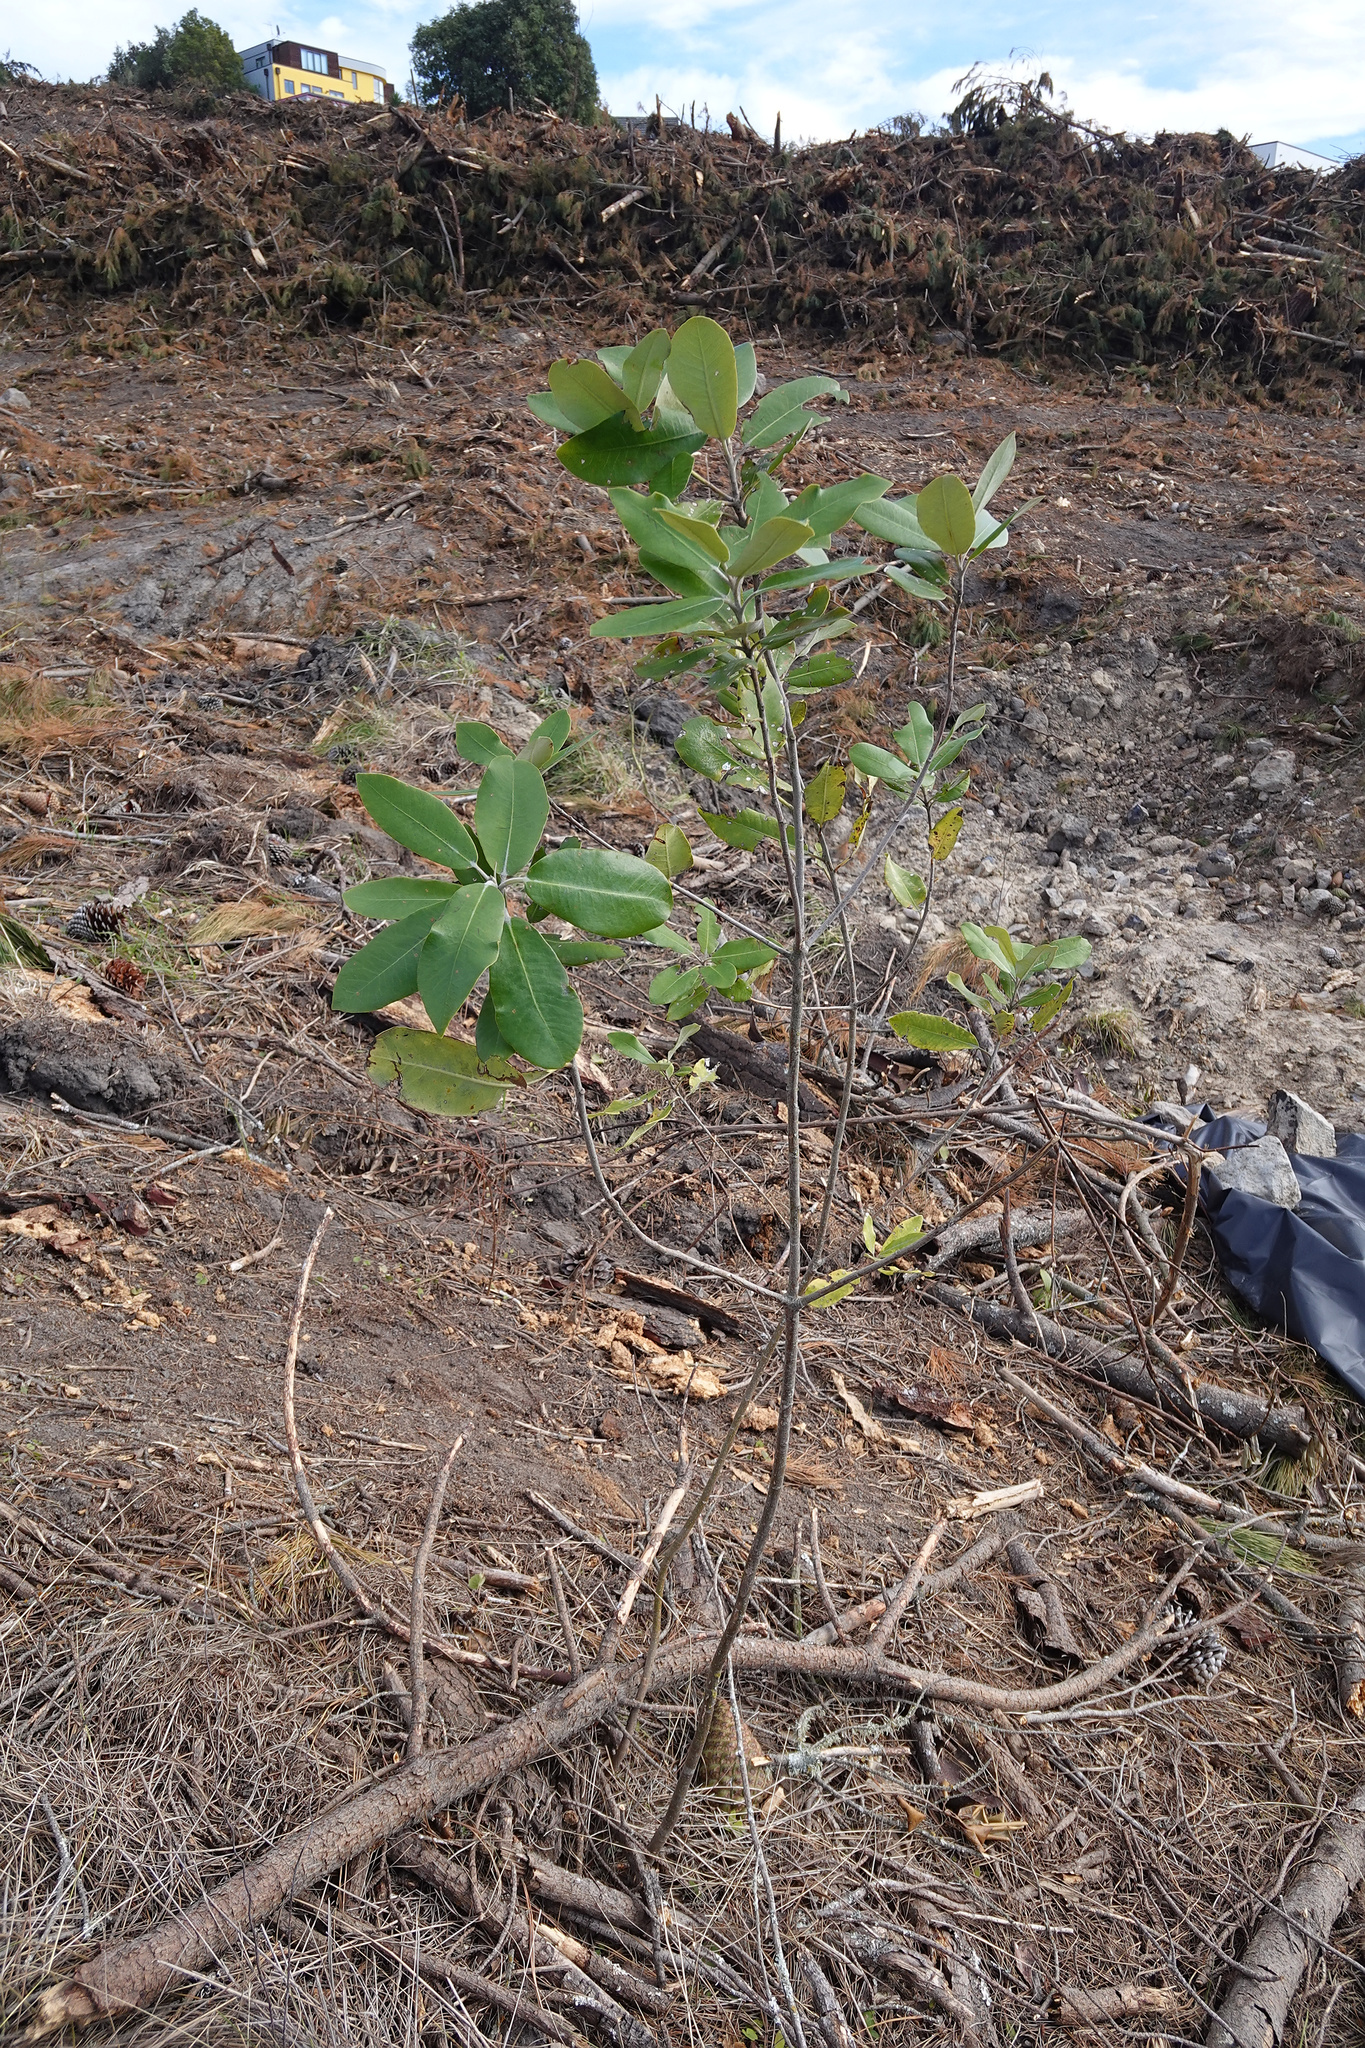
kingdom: Plantae
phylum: Tracheophyta
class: Magnoliopsida
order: Apiales
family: Pittosporaceae
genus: Pittosporum
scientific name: Pittosporum ralphii
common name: Ralph's desertwillow
